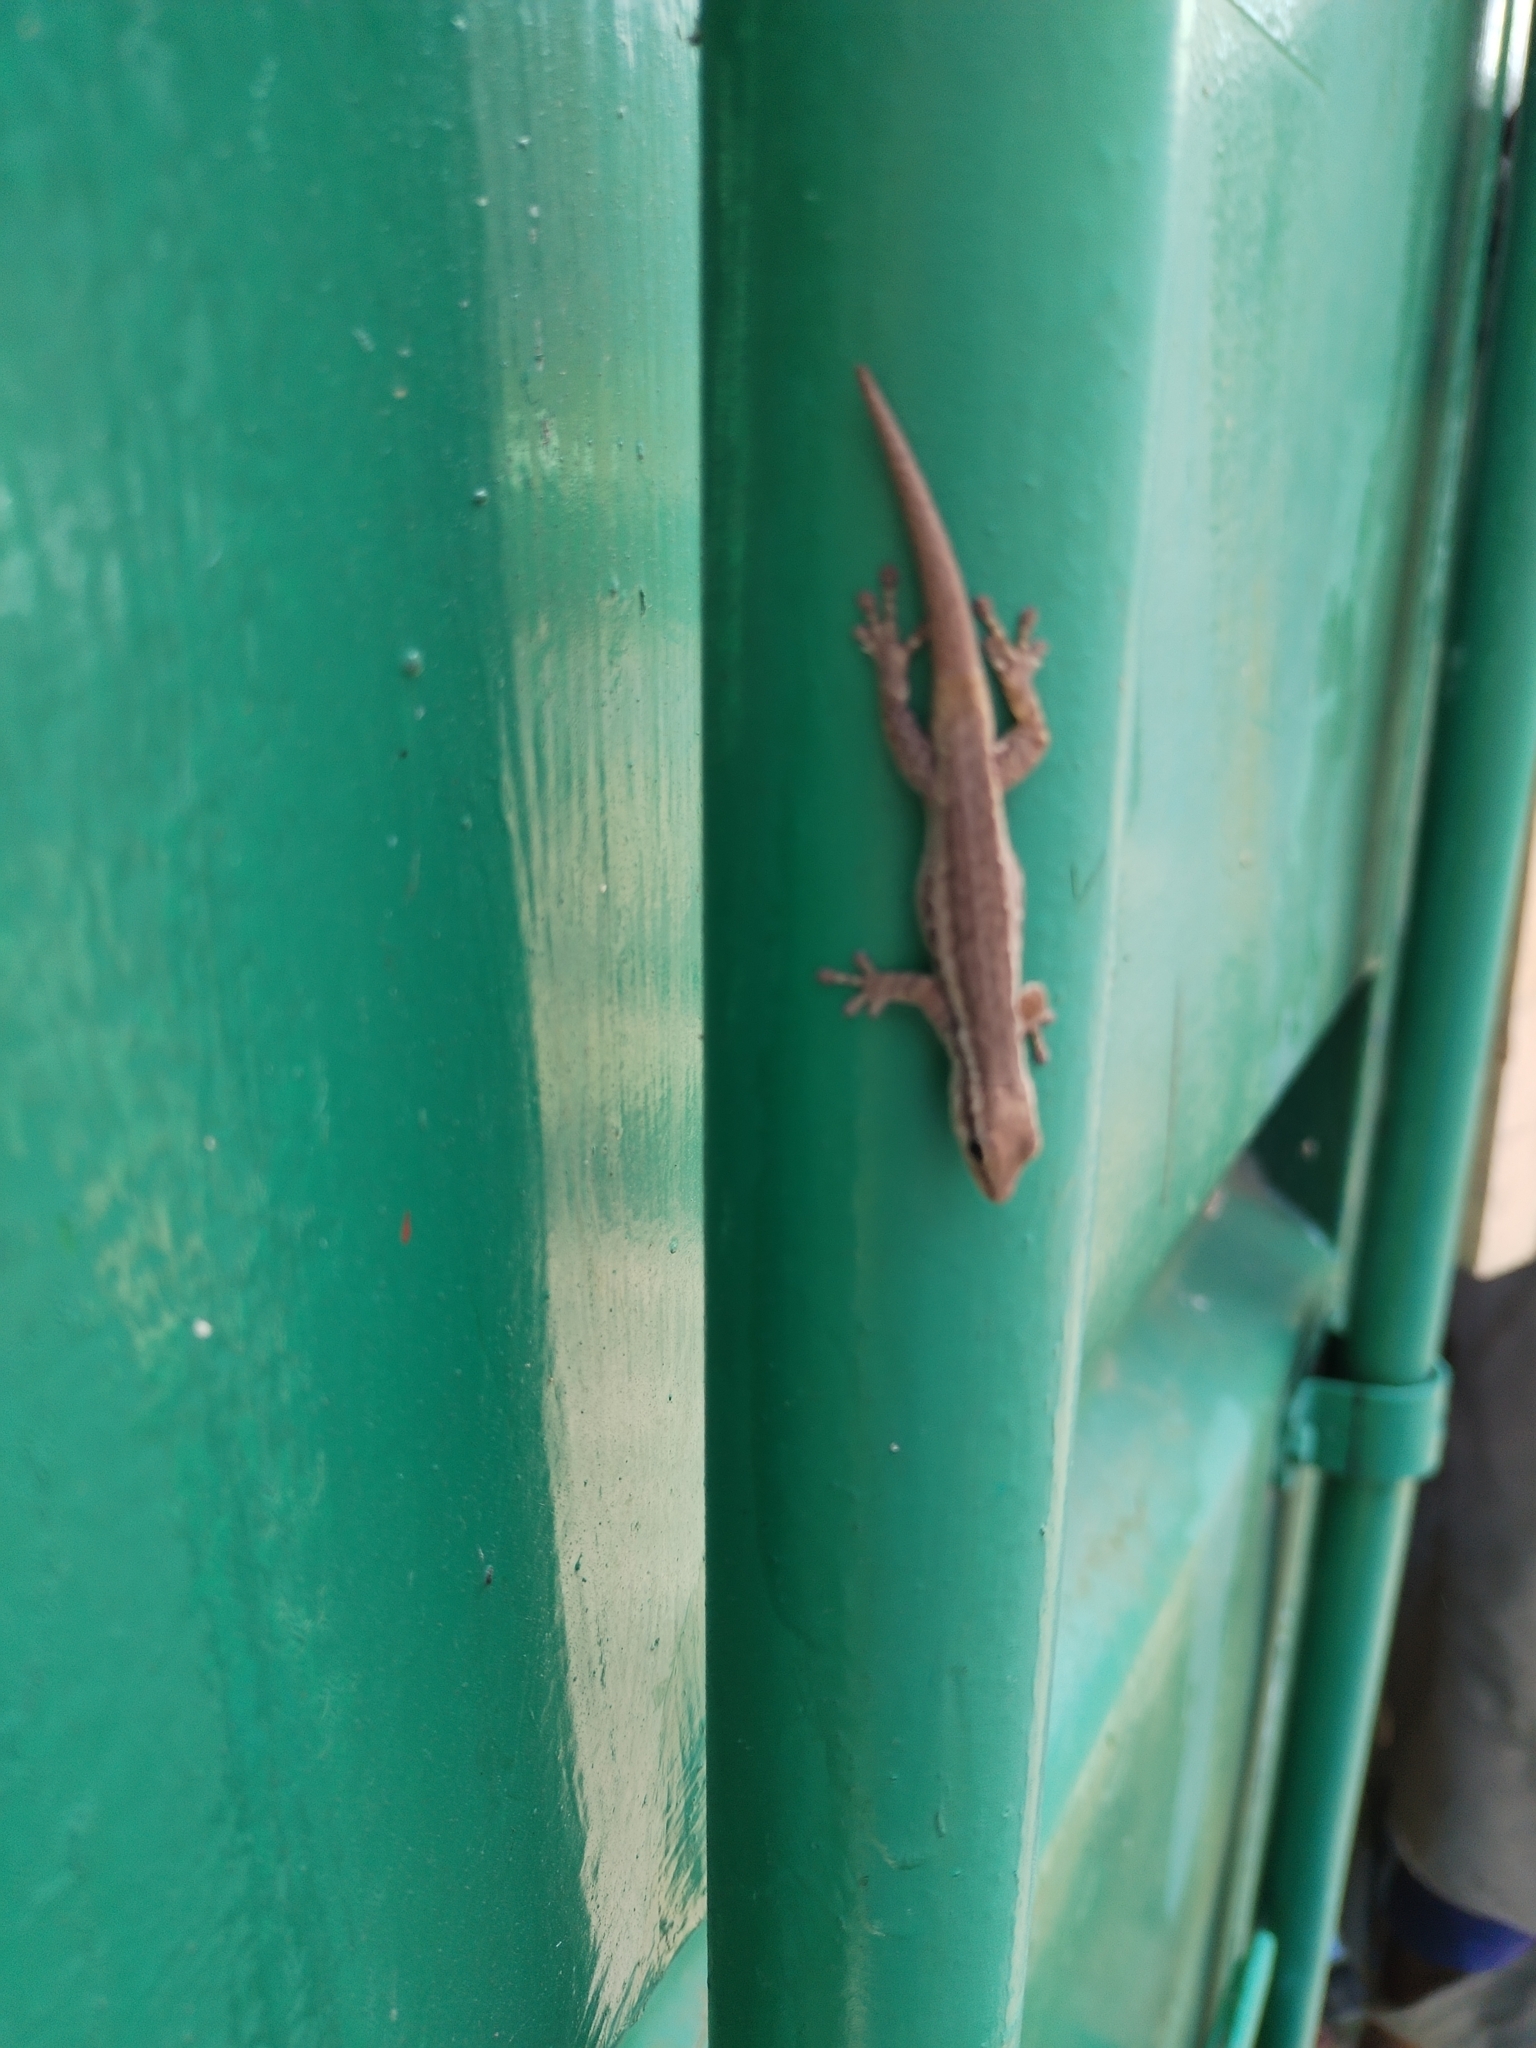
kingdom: Animalia
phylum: Chordata
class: Squamata
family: Gekkonidae
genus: Lygodactylus
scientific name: Lygodactylus capensis
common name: Cape dwarf gecko
